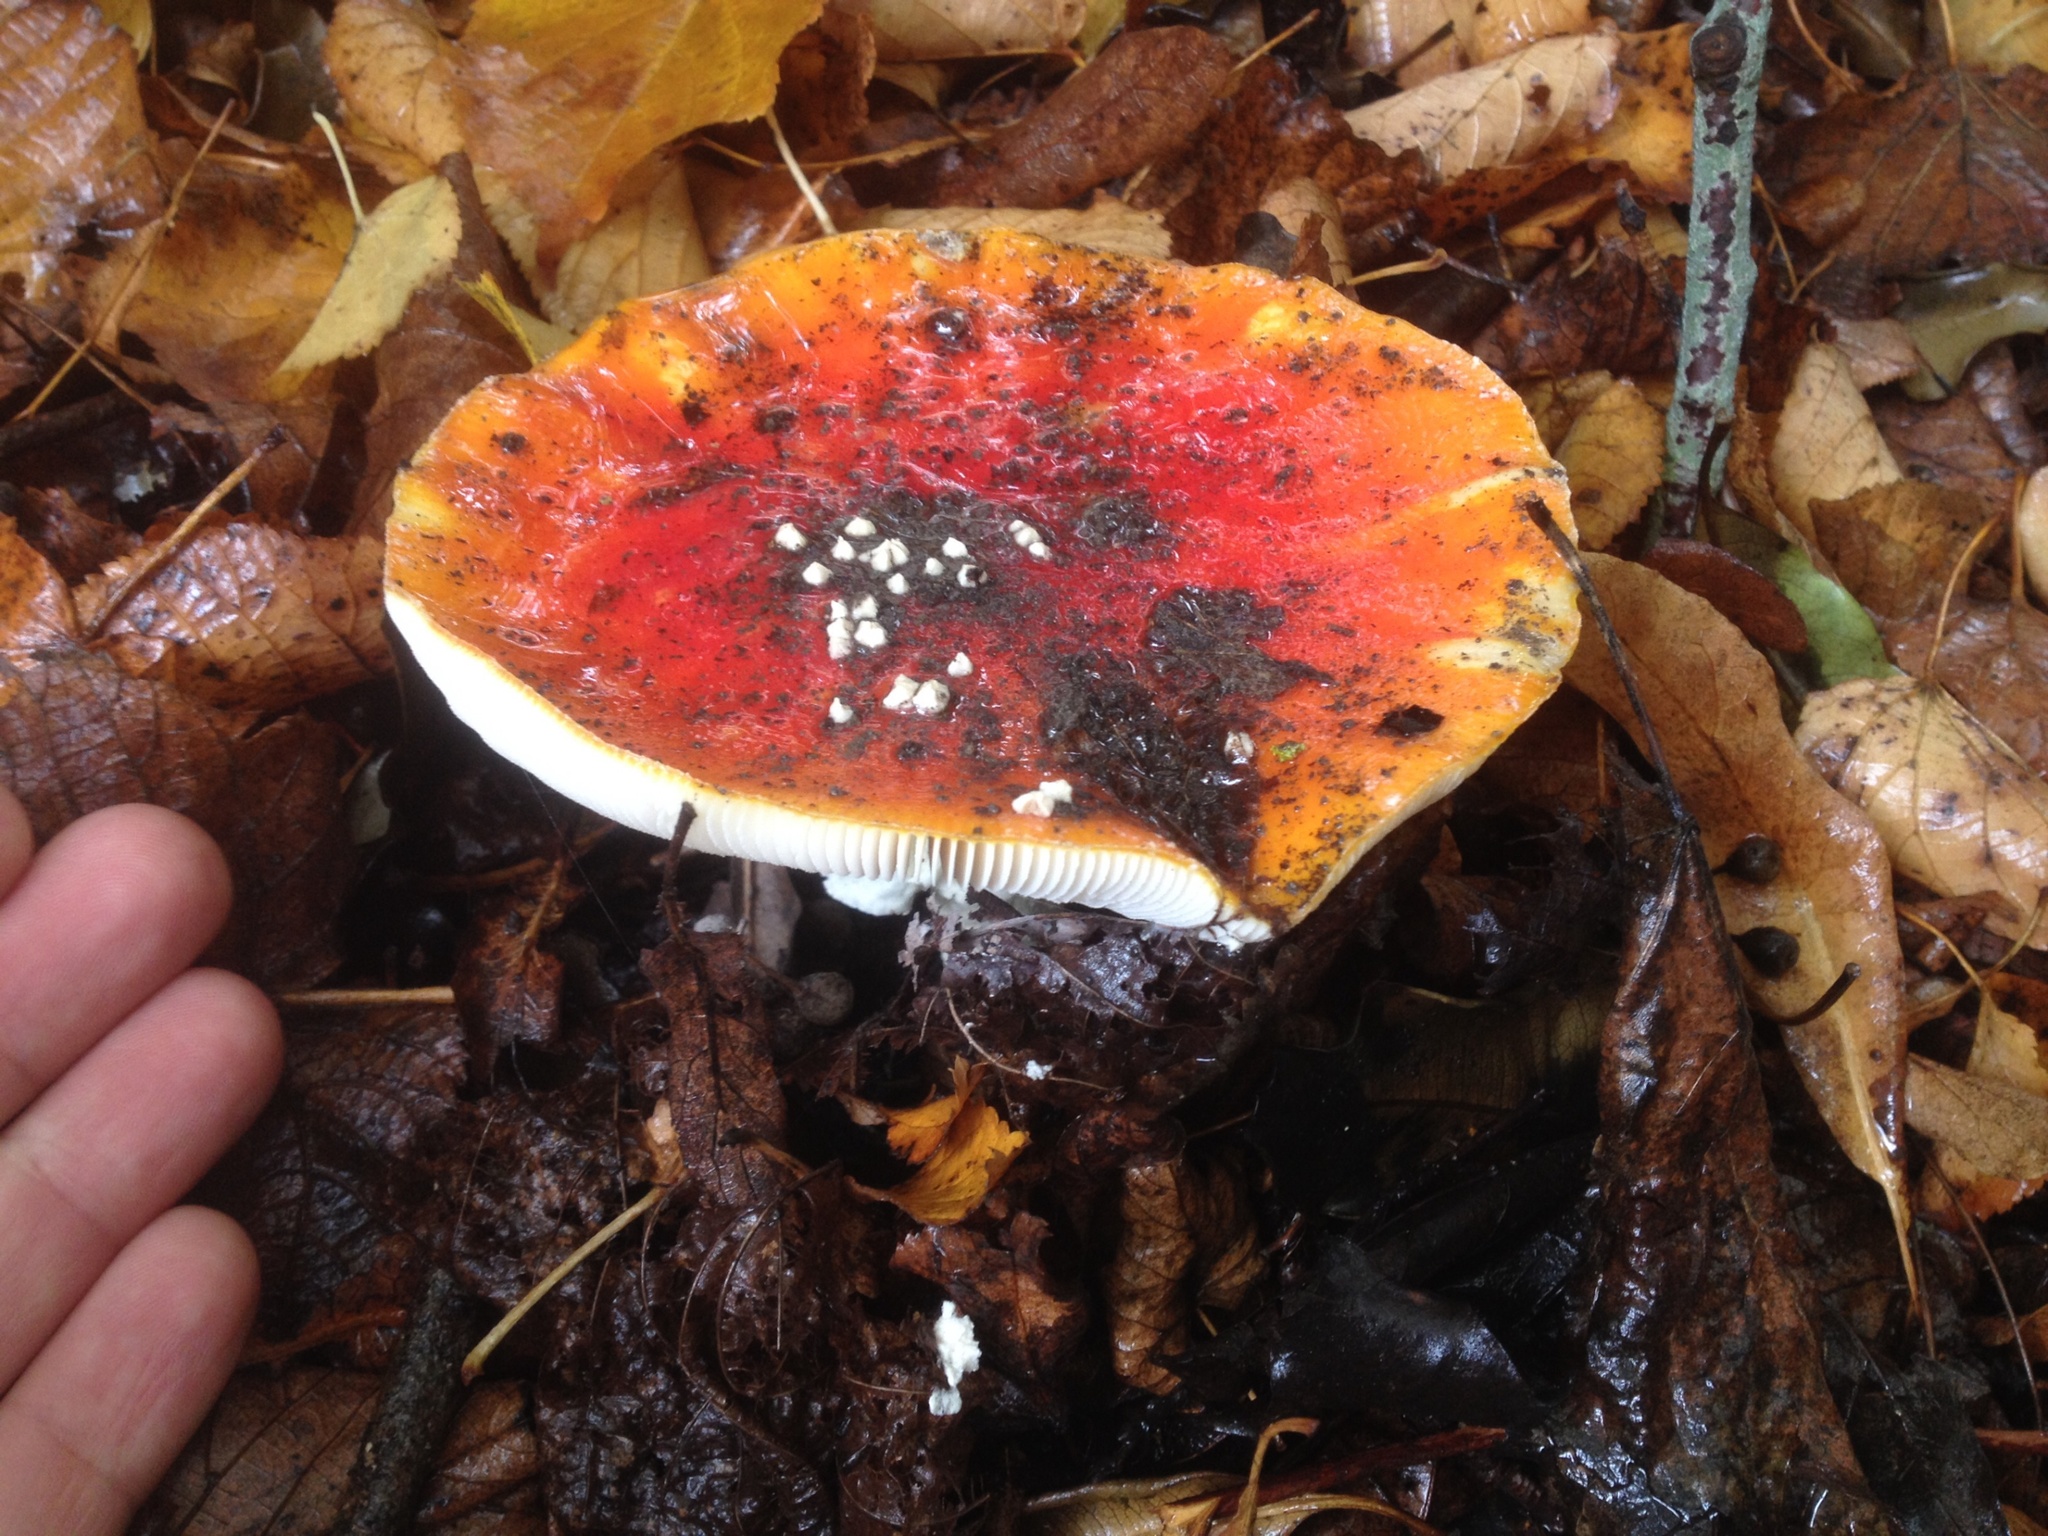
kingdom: Fungi
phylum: Basidiomycota
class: Agaricomycetes
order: Agaricales
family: Amanitaceae
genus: Amanita
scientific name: Amanita muscaria
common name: Fly agaric
